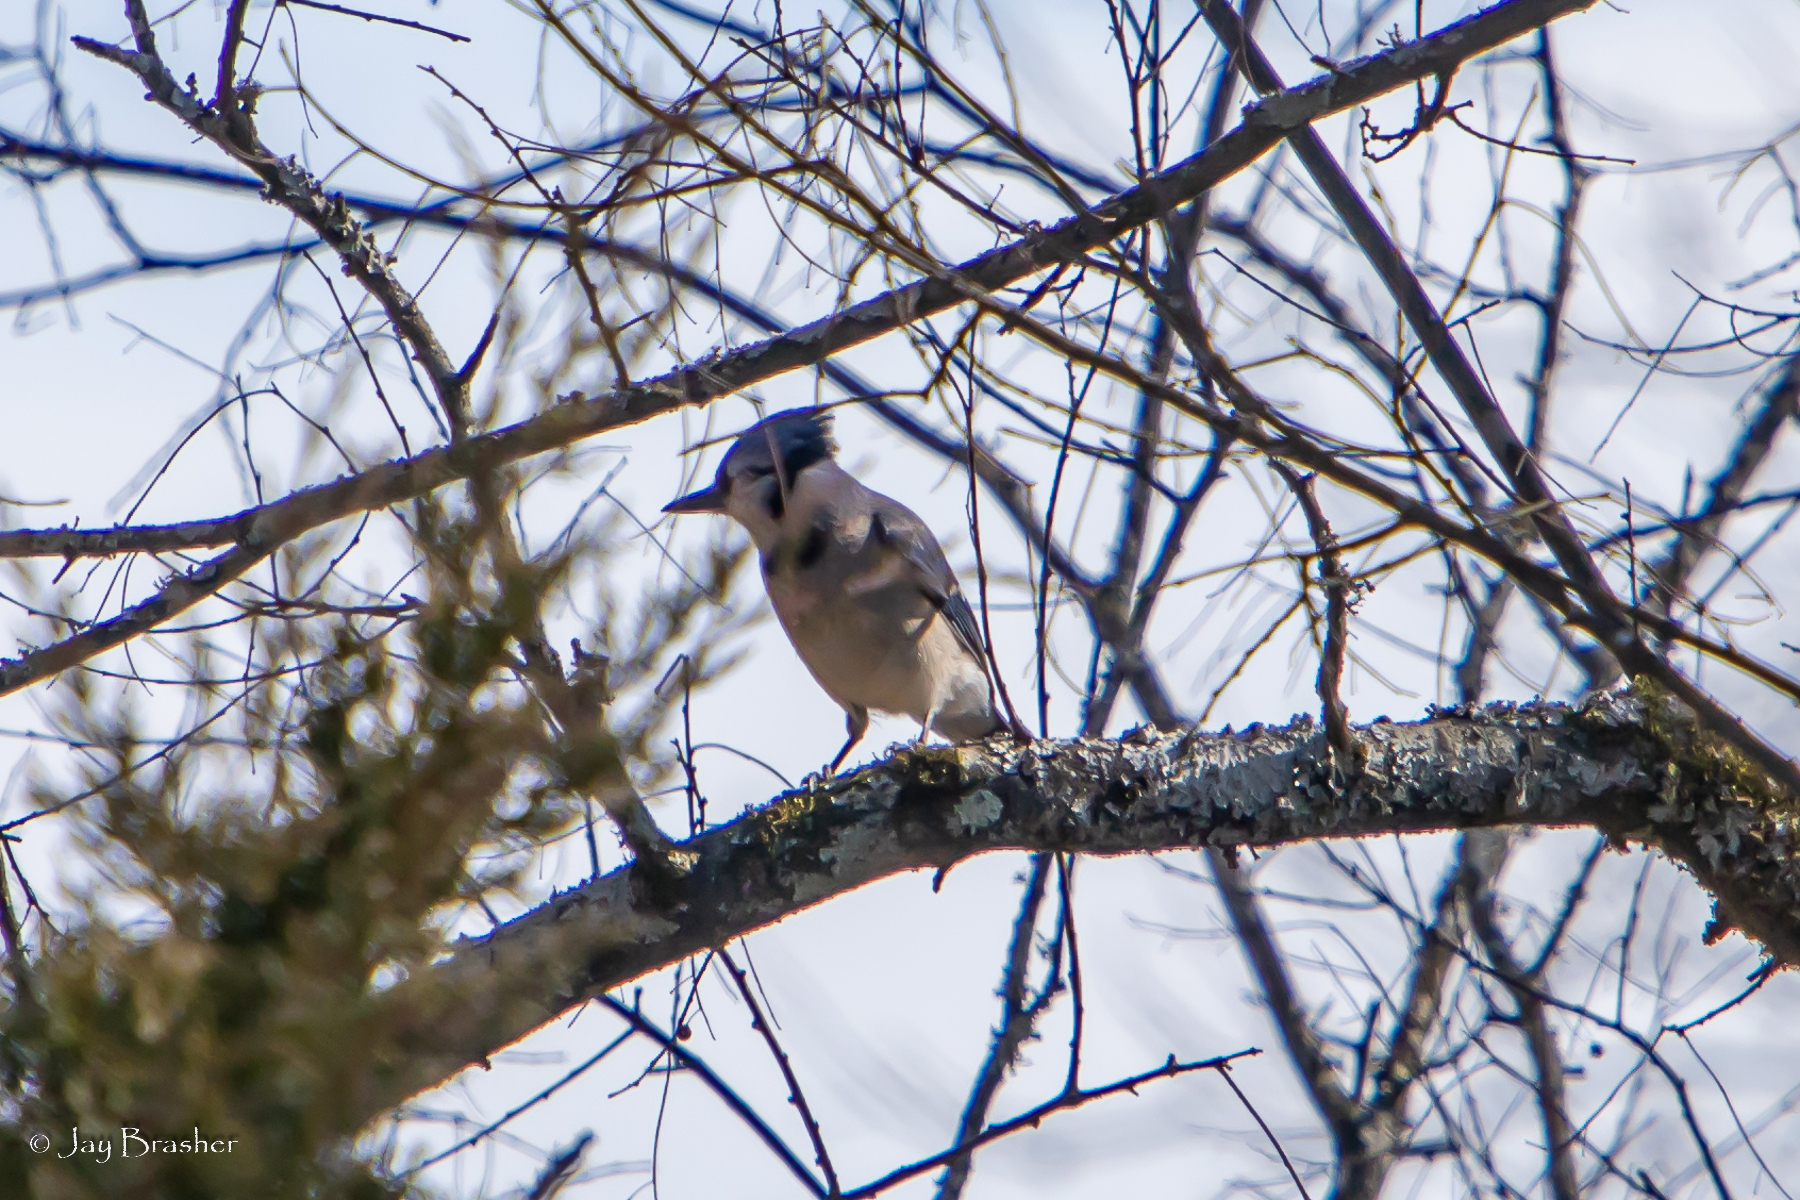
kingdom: Animalia
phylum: Chordata
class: Aves
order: Passeriformes
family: Corvidae
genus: Cyanocitta
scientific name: Cyanocitta cristata
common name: Blue jay
